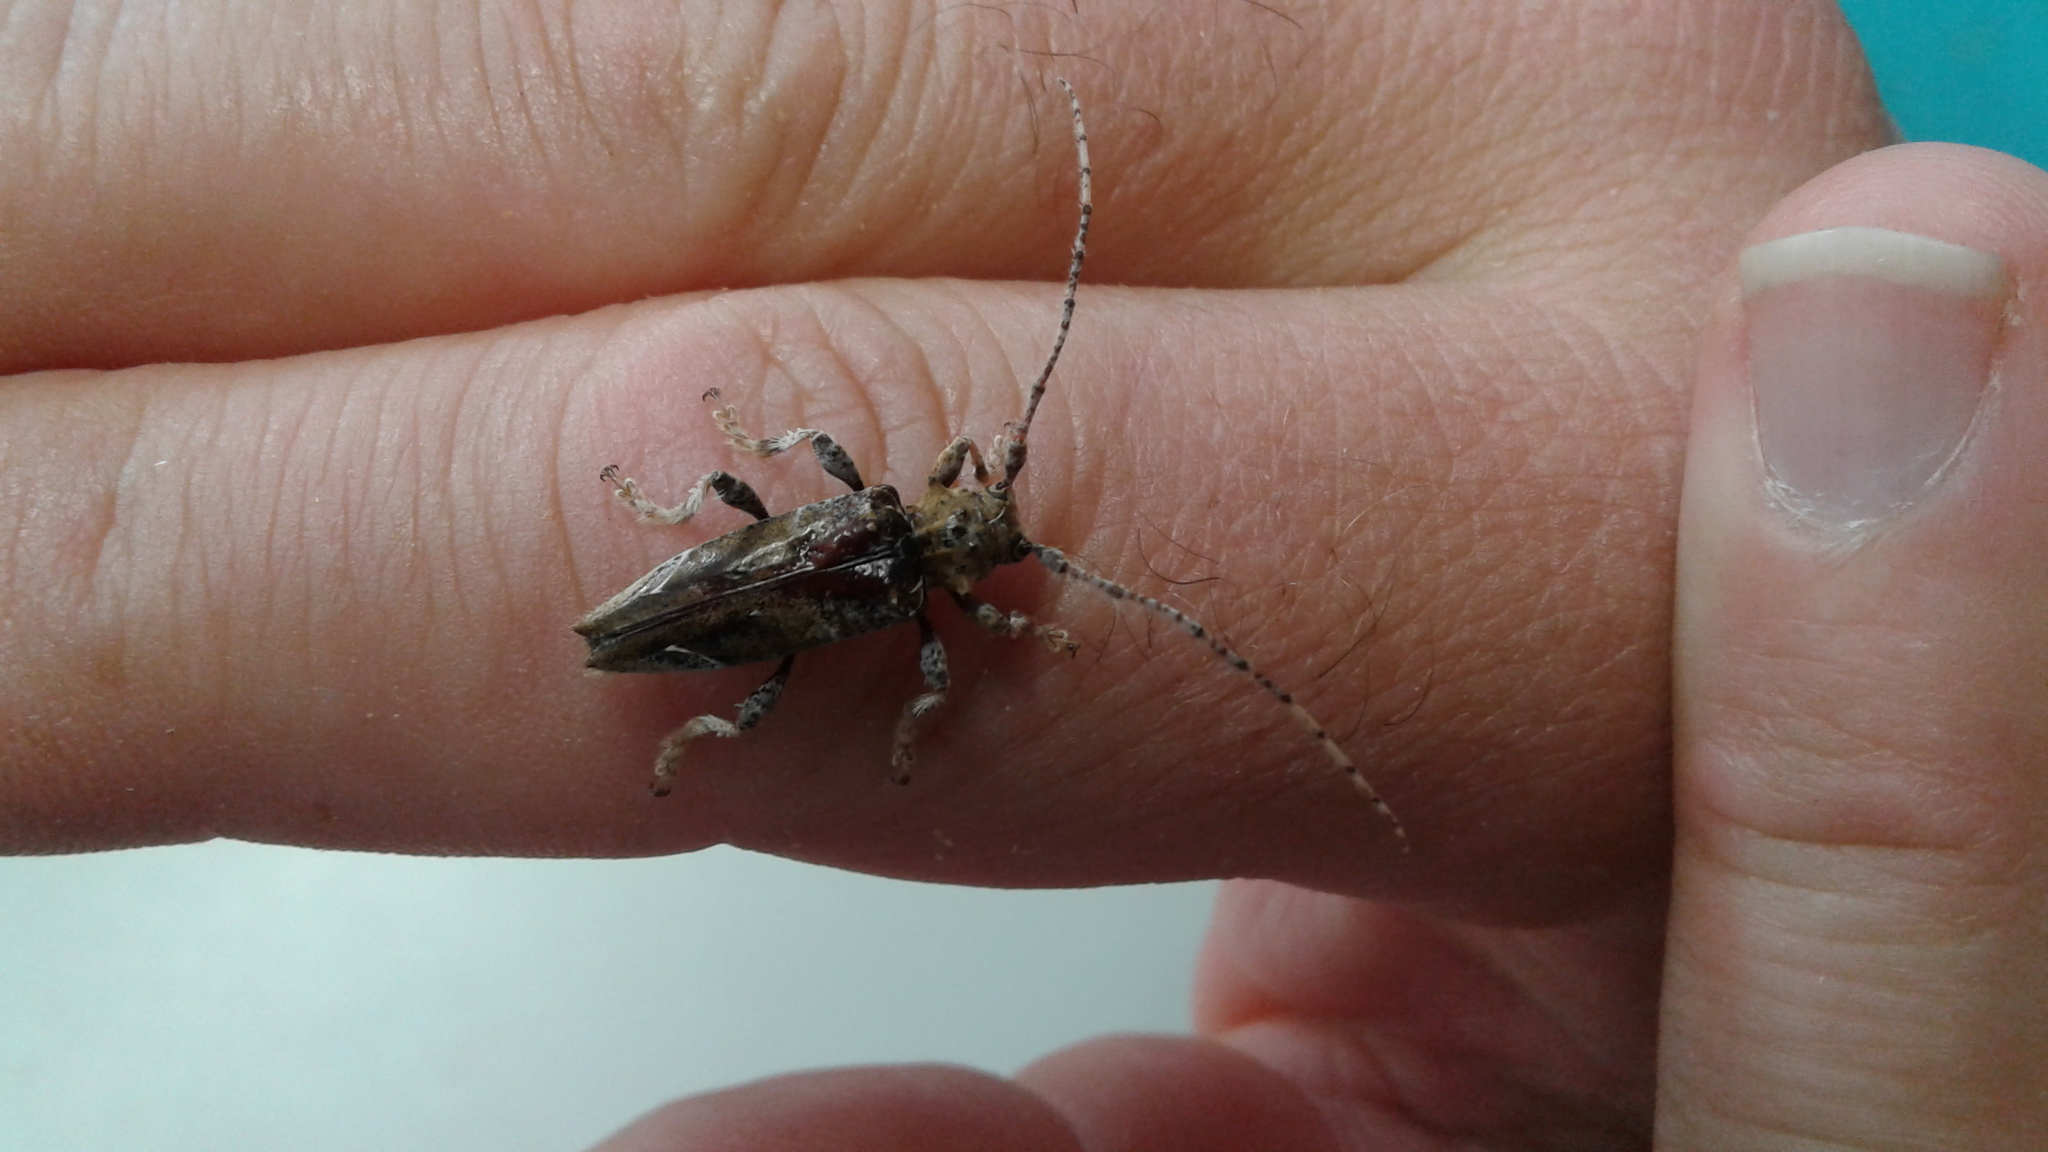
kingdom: Animalia
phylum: Arthropoda
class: Insecta
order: Coleoptera
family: Cerambycidae
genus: Tetrorea
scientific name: Tetrorea cilipes
